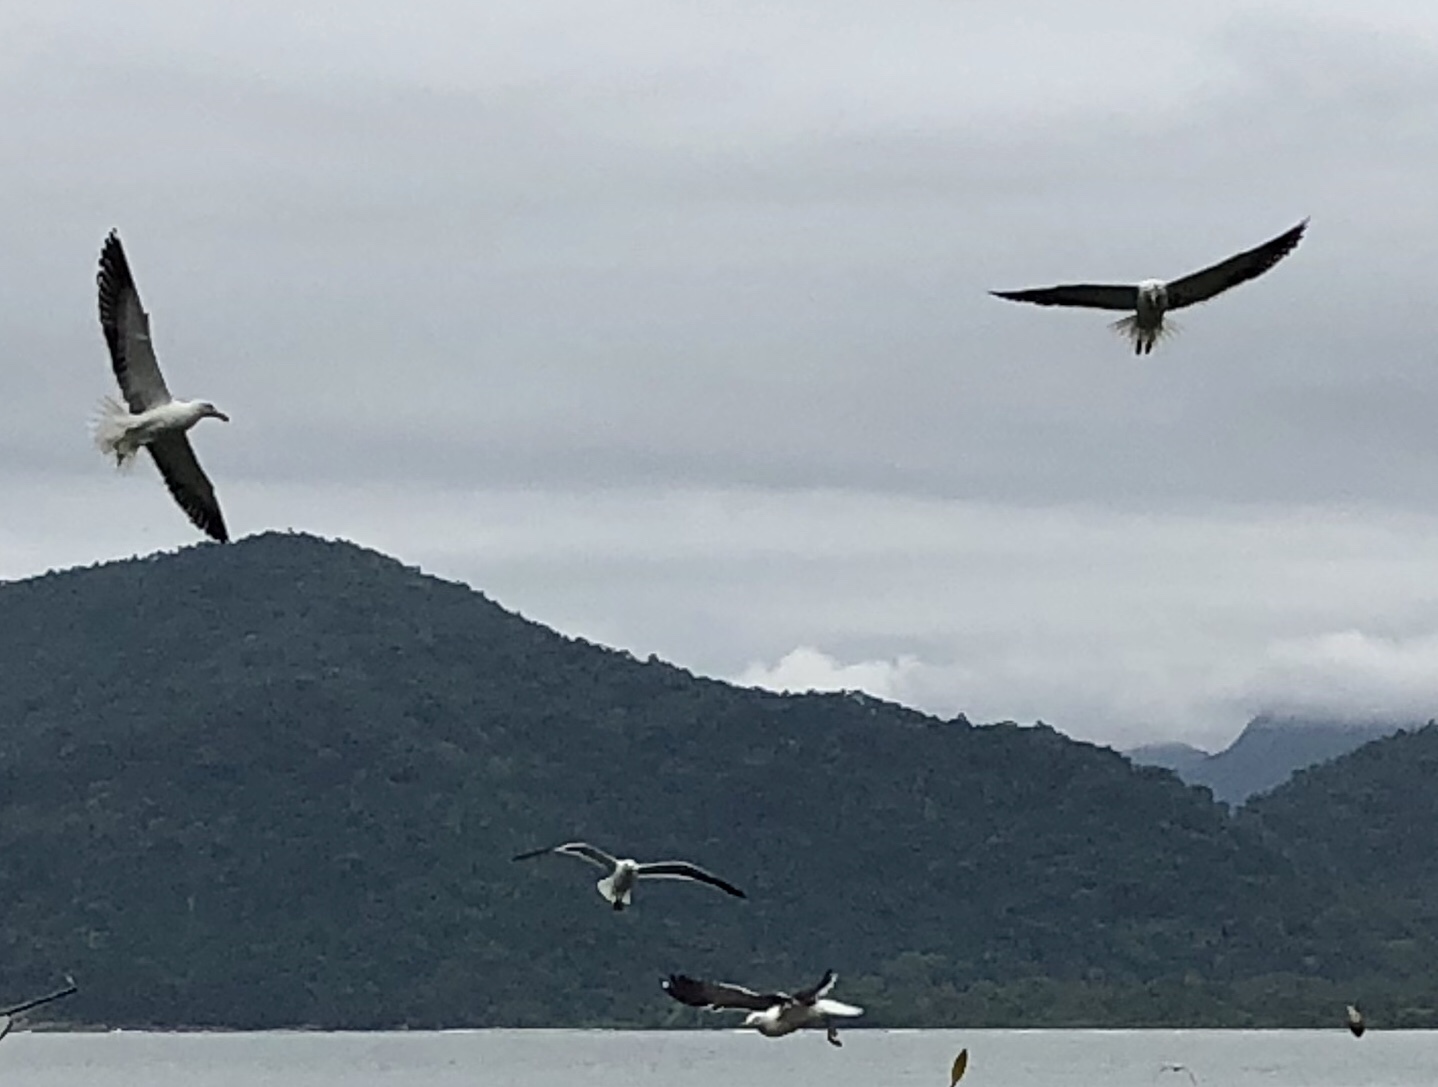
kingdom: Animalia
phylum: Chordata
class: Aves
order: Charadriiformes
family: Laridae
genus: Larus
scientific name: Larus dominicanus
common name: Kelp gull
